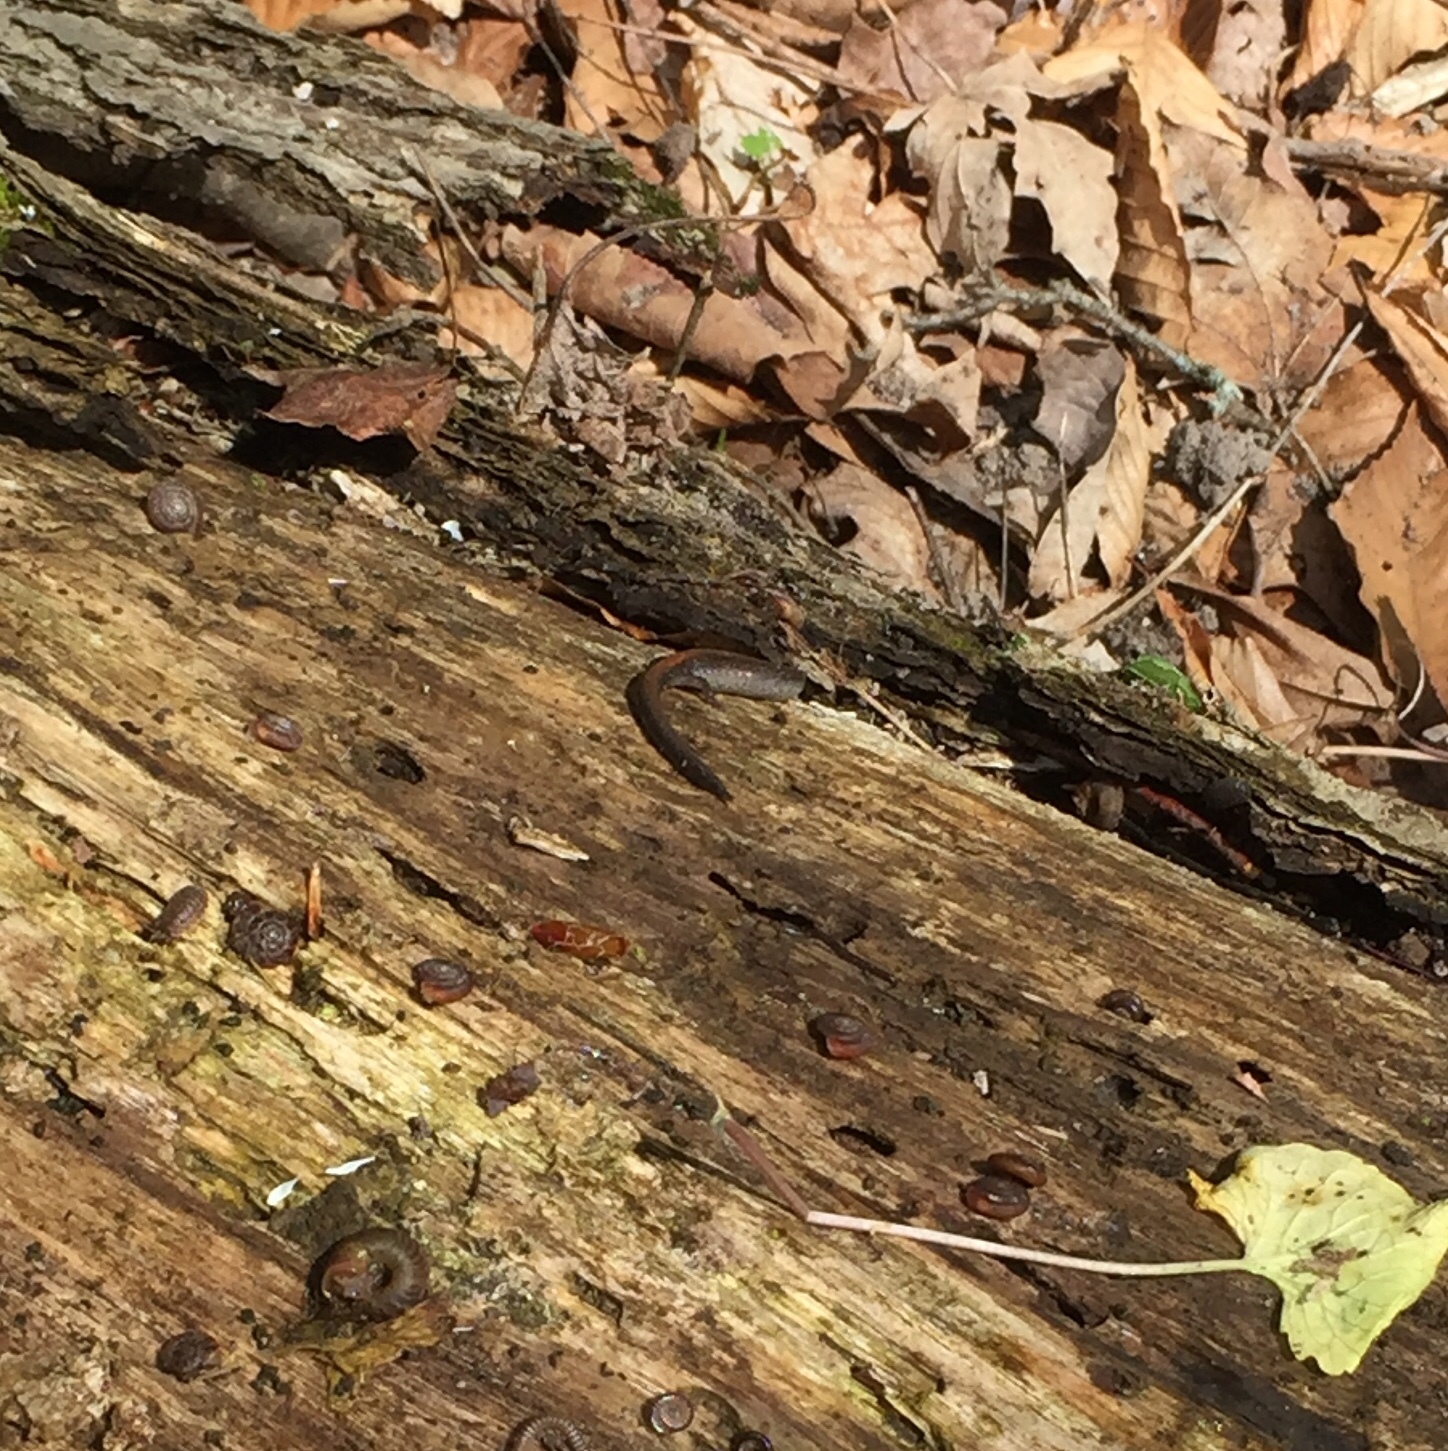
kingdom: Animalia
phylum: Chordata
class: Amphibia
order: Caudata
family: Plethodontidae
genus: Plethodon
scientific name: Plethodon cinereus
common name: Redback salamander
